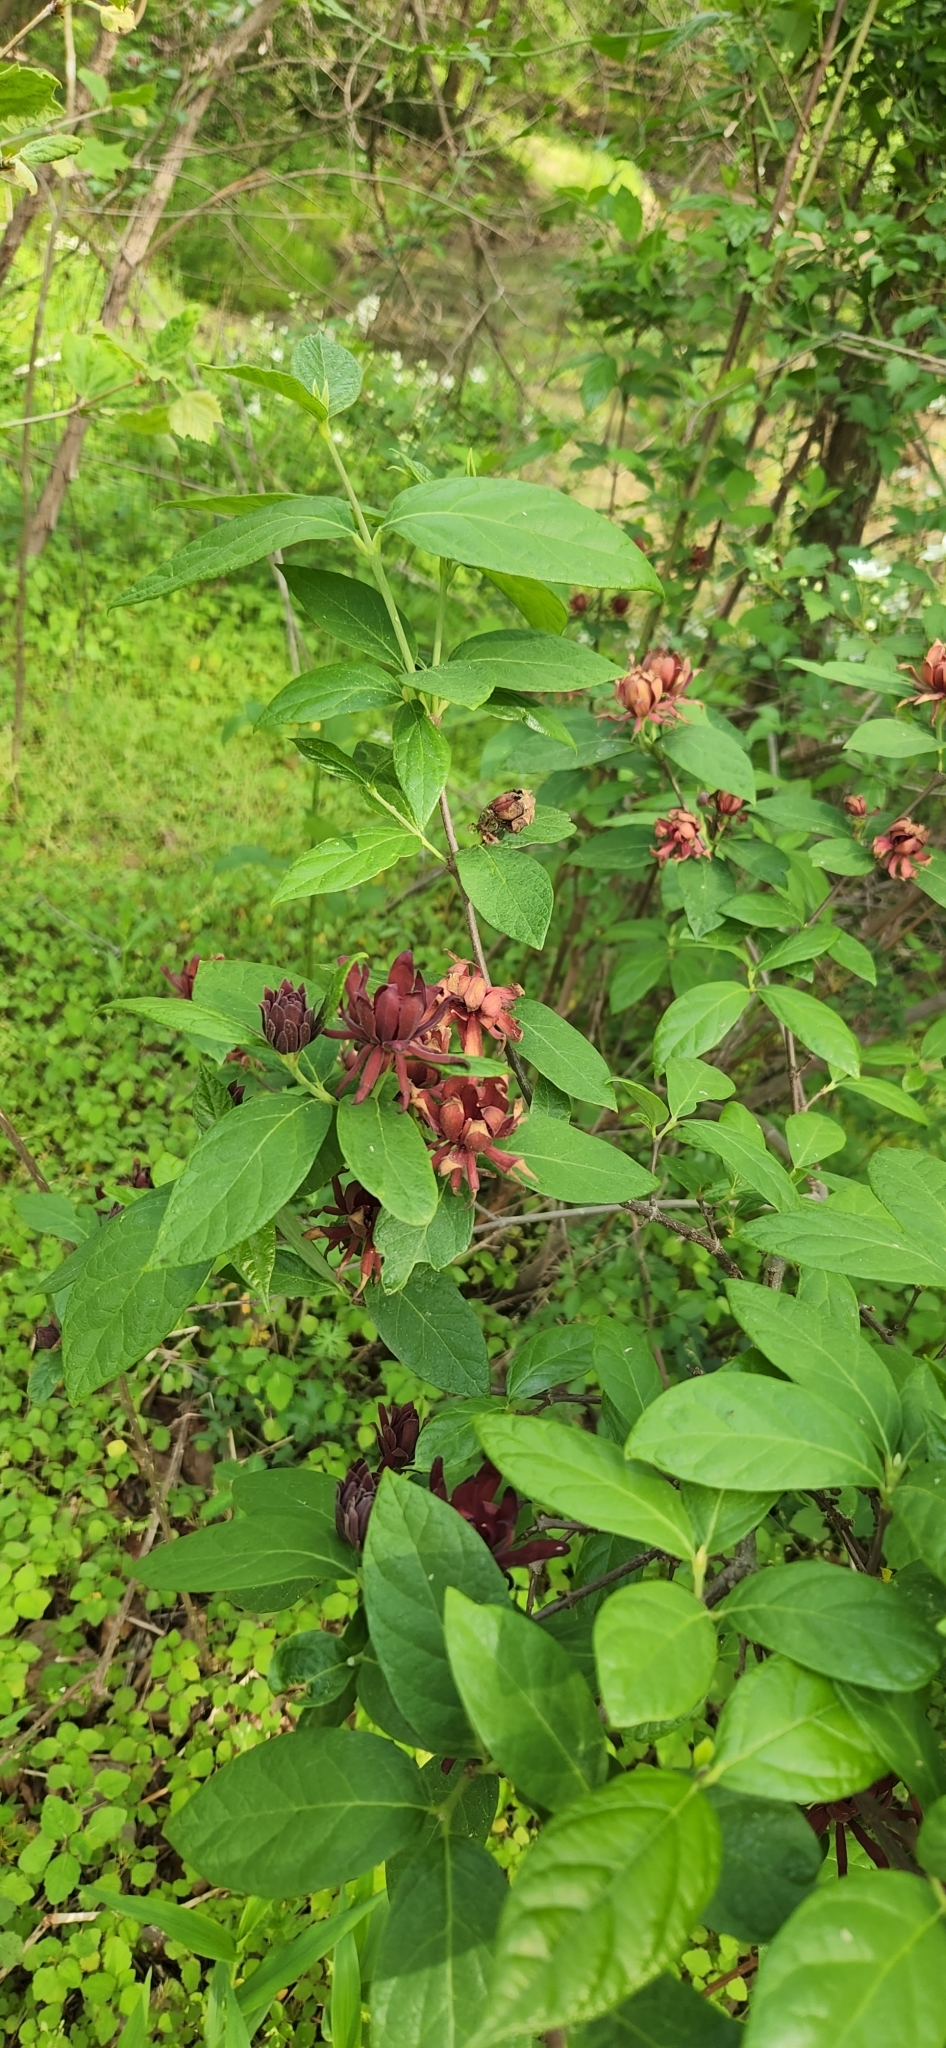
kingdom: Plantae
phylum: Tracheophyta
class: Magnoliopsida
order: Laurales
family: Calycanthaceae
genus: Calycanthus
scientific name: Calycanthus floridus
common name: Carolina-allspice
